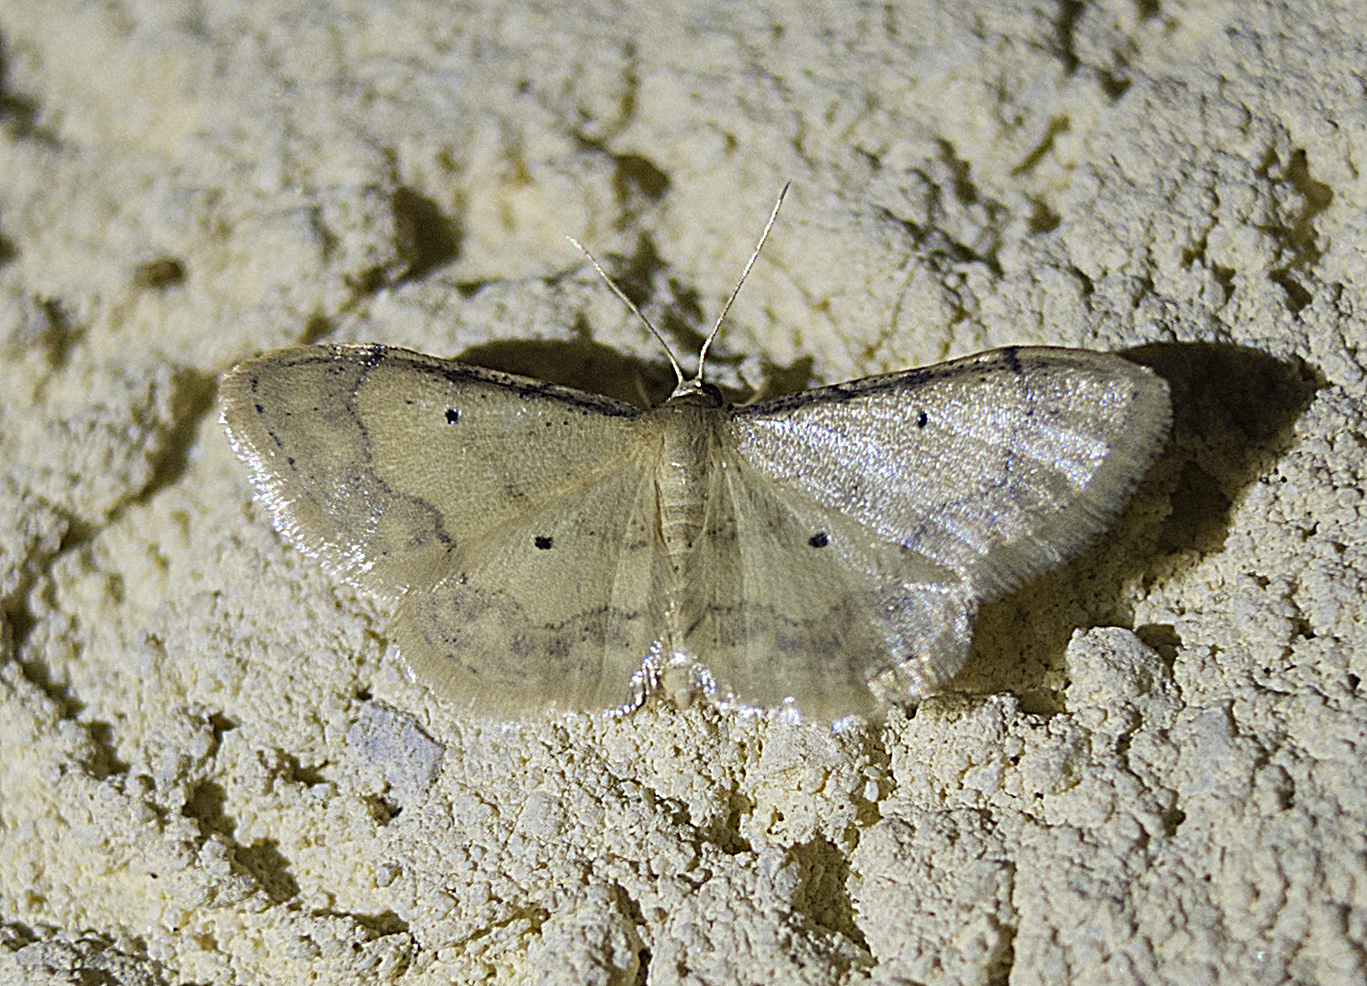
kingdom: Animalia
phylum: Arthropoda
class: Insecta
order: Lepidoptera
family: Geometridae
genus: Idaea
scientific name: Idaea politaria
